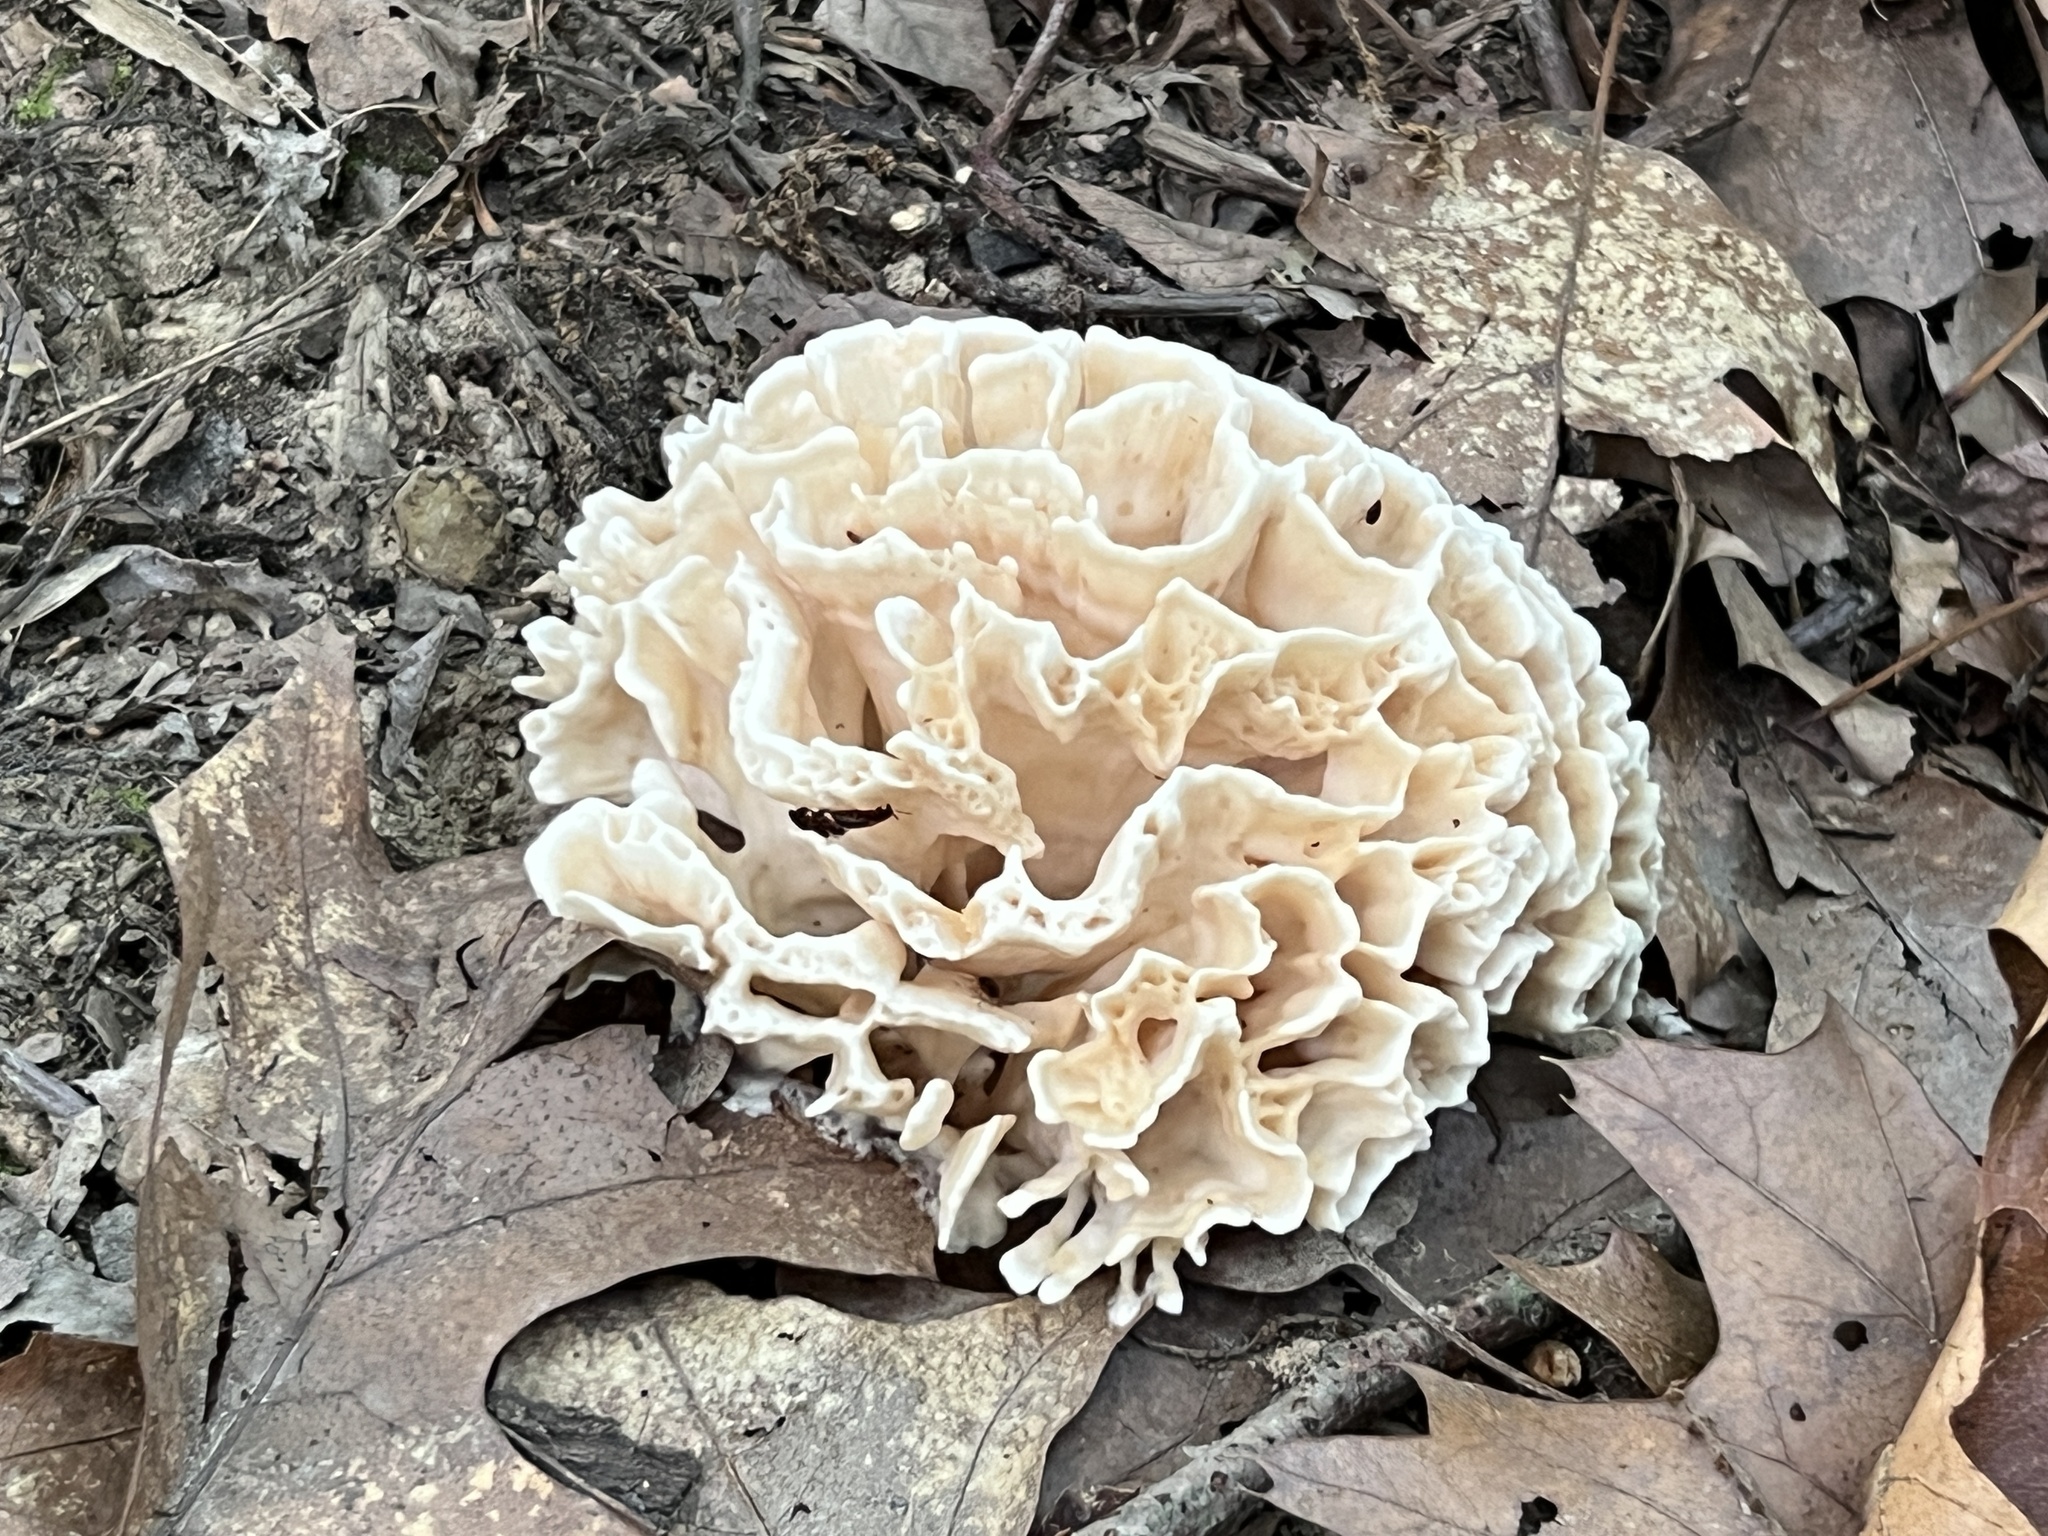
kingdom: Fungi
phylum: Basidiomycota
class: Agaricomycetes
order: Polyporales
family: Sparassidaceae
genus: Sparassis
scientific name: Sparassis spathulata
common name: Eastern cauliflower mushroom
